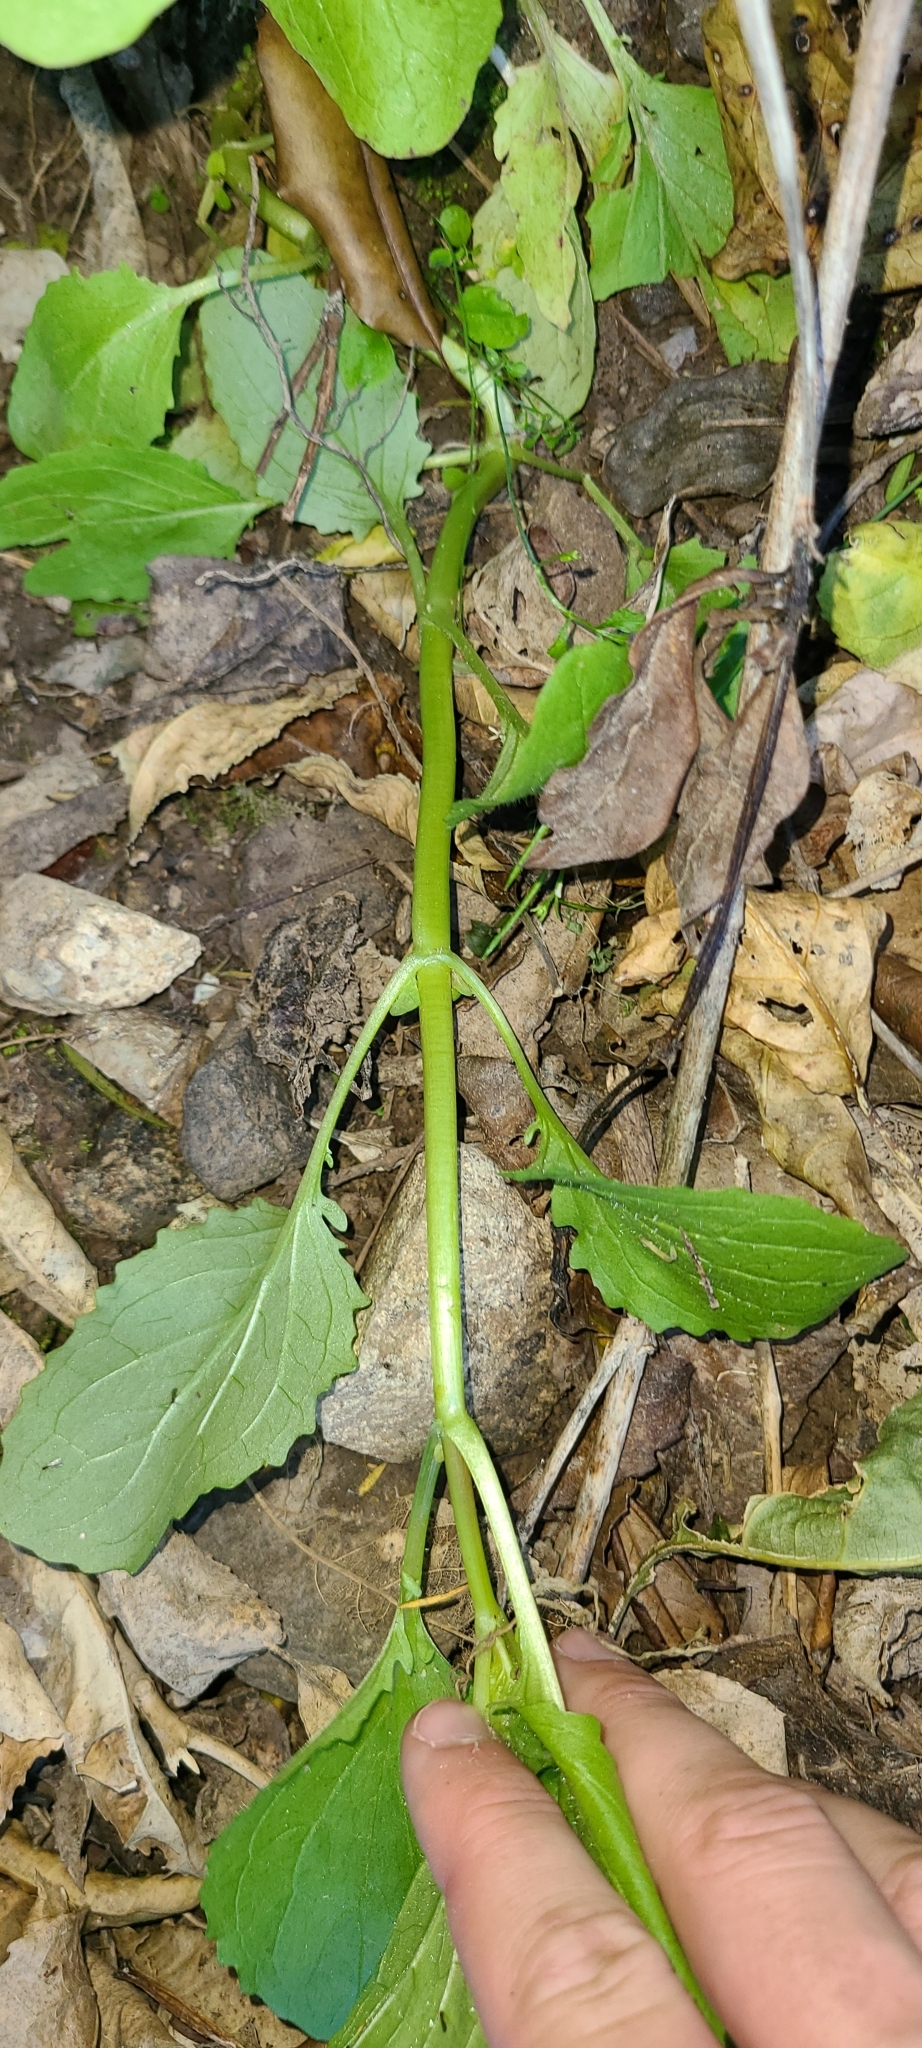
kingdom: Plantae
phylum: Tracheophyta
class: Magnoliopsida
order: Lamiales
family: Phrymaceae
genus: Erythranthe
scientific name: Erythranthe guttata
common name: Monkeyflower
